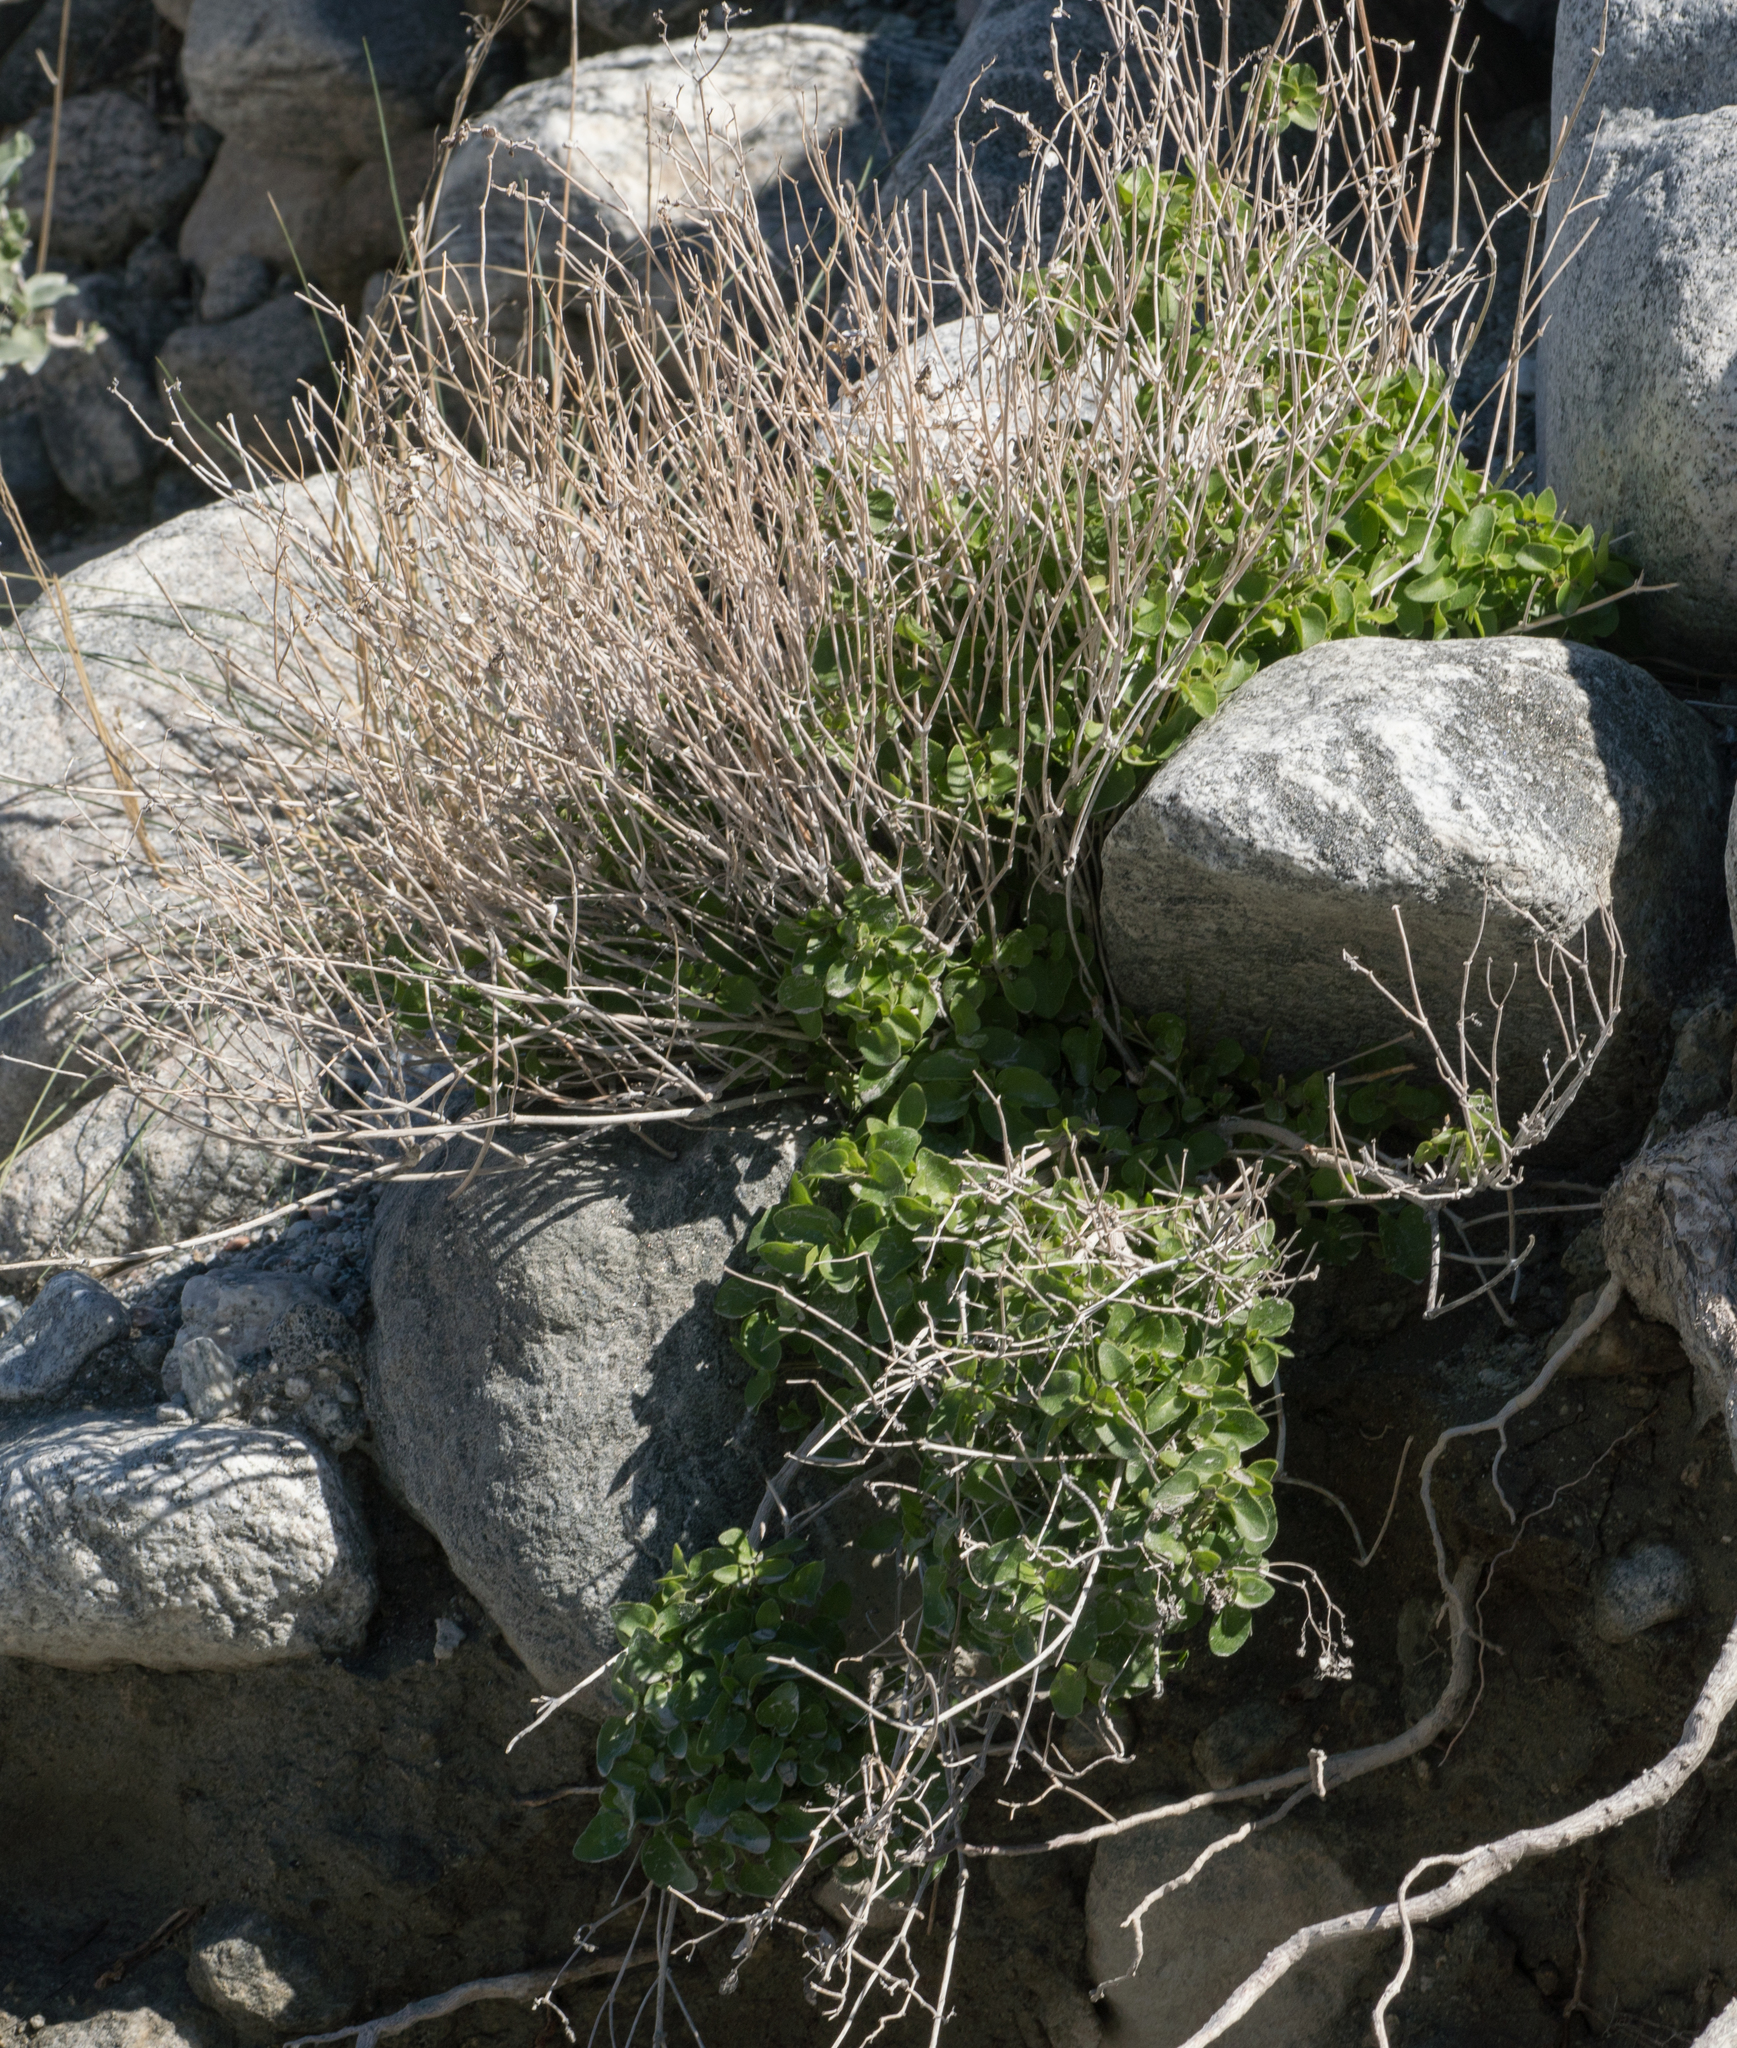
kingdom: Plantae
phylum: Tracheophyta
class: Magnoliopsida
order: Caryophyllales
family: Nyctaginaceae
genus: Mirabilis
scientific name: Mirabilis laevis
